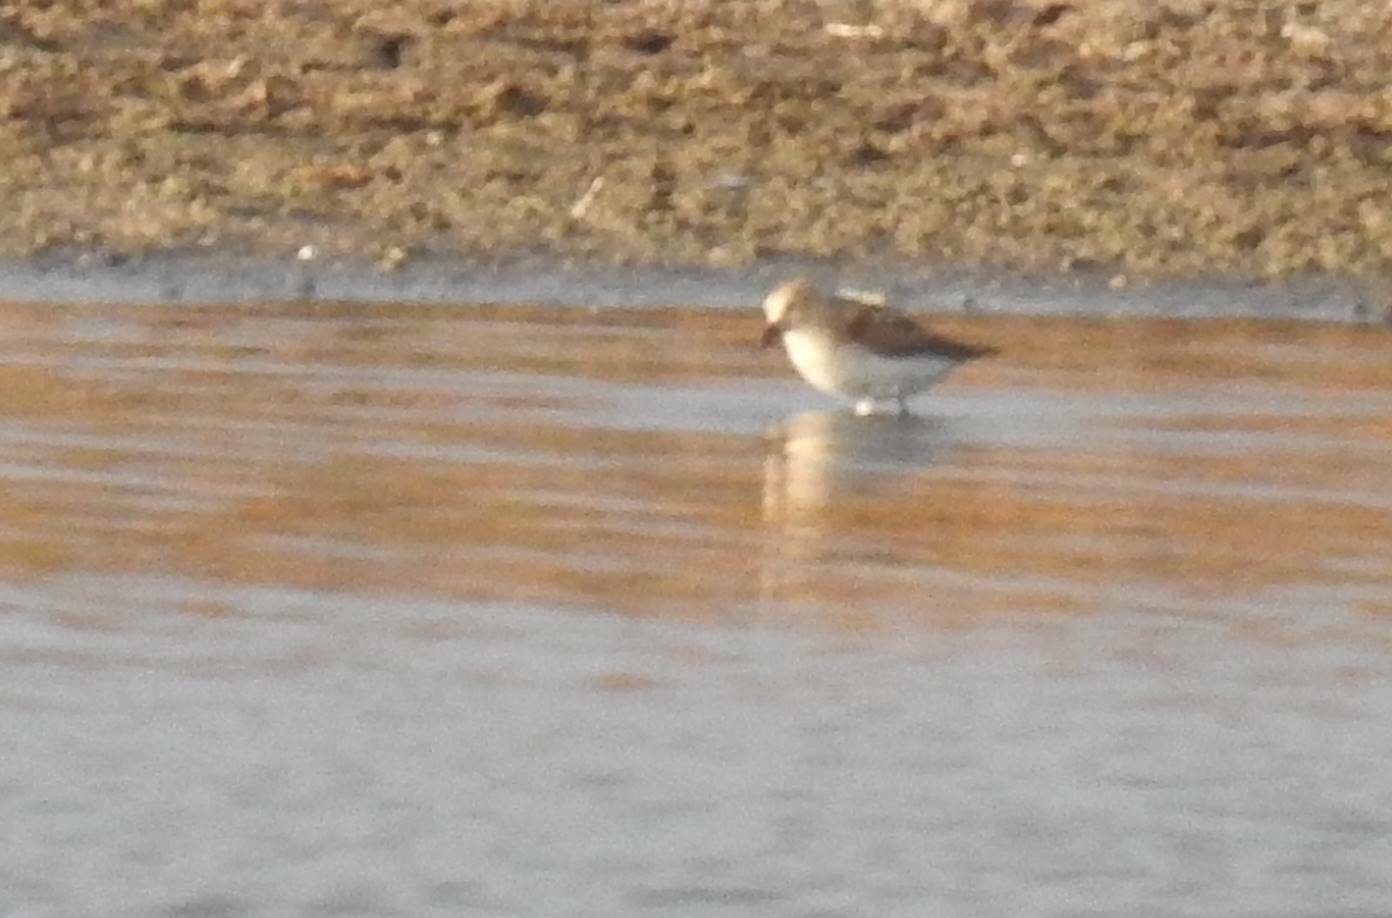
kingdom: Animalia
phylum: Chordata
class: Aves
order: Charadriiformes
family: Scolopacidae
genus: Calidris
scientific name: Calidris minuta
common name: Little stint
